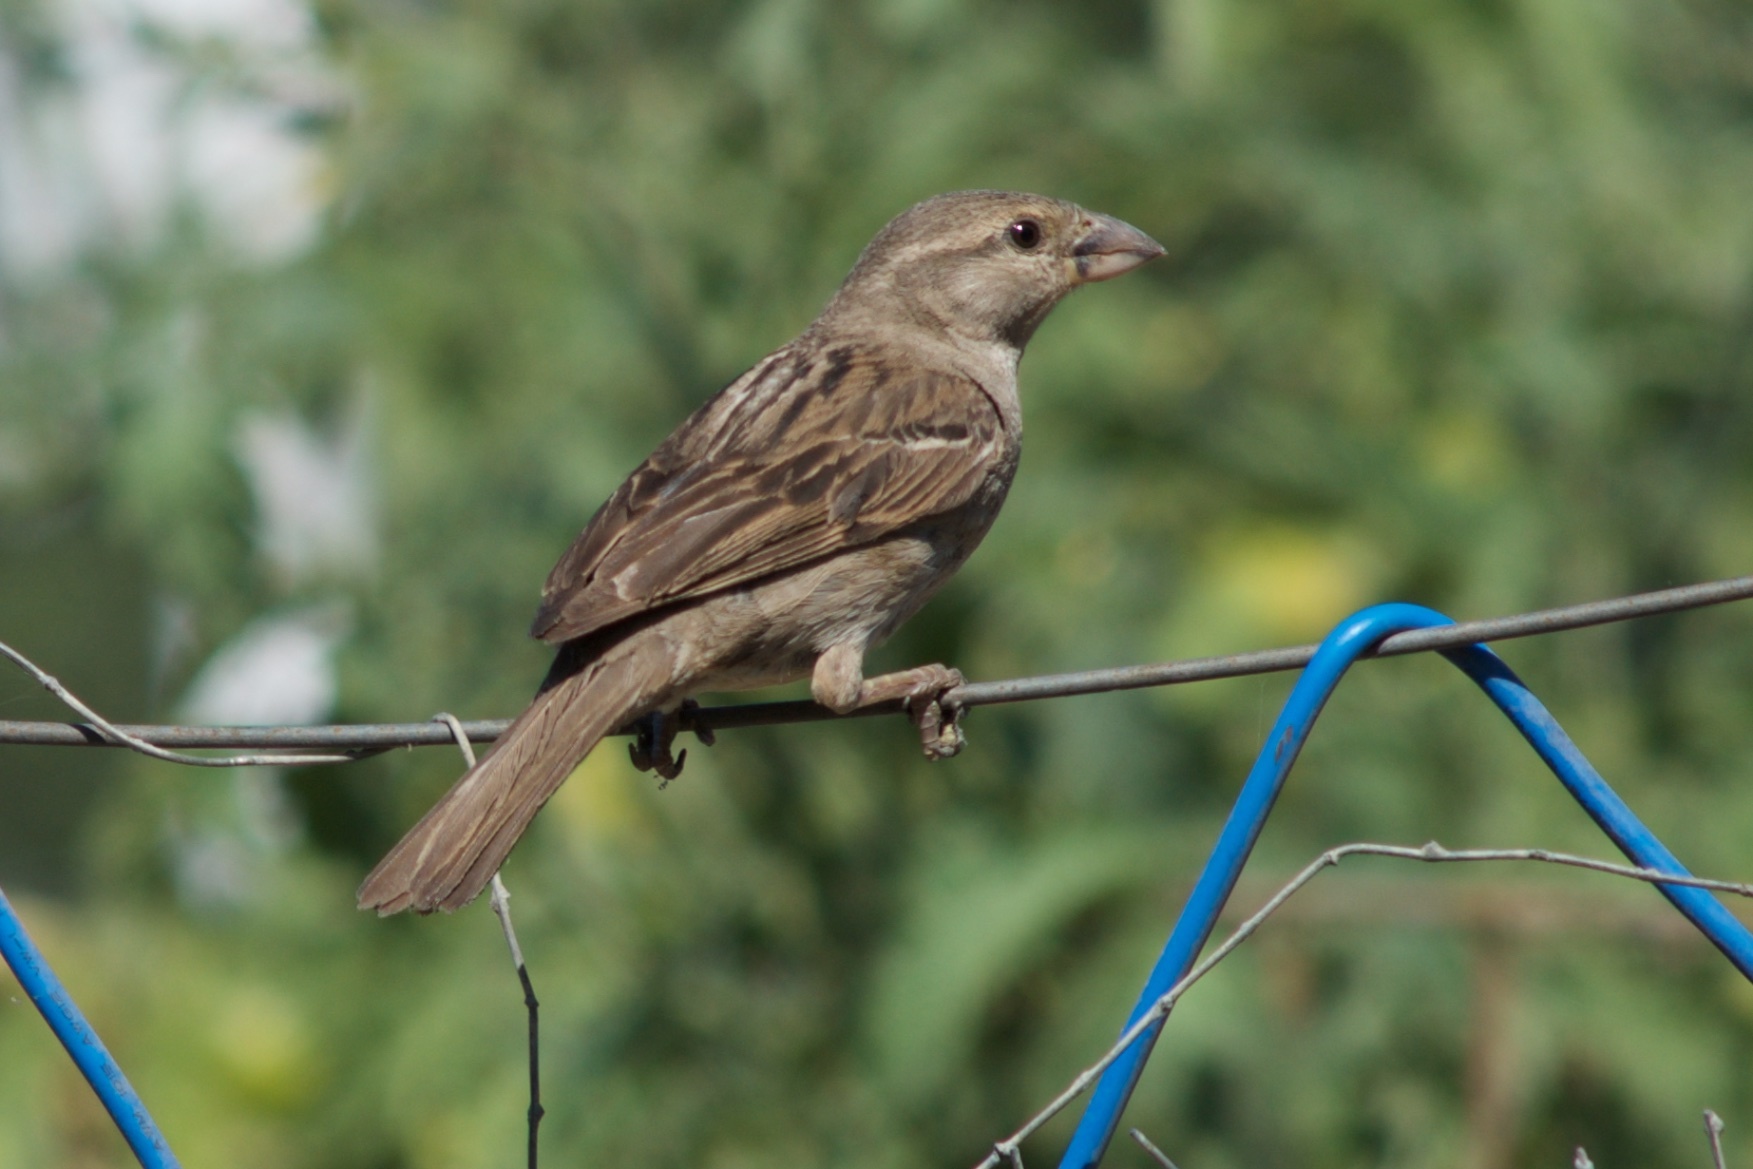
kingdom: Animalia
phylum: Chordata
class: Aves
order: Passeriformes
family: Passeridae
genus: Passer
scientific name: Passer domesticus
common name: House sparrow
